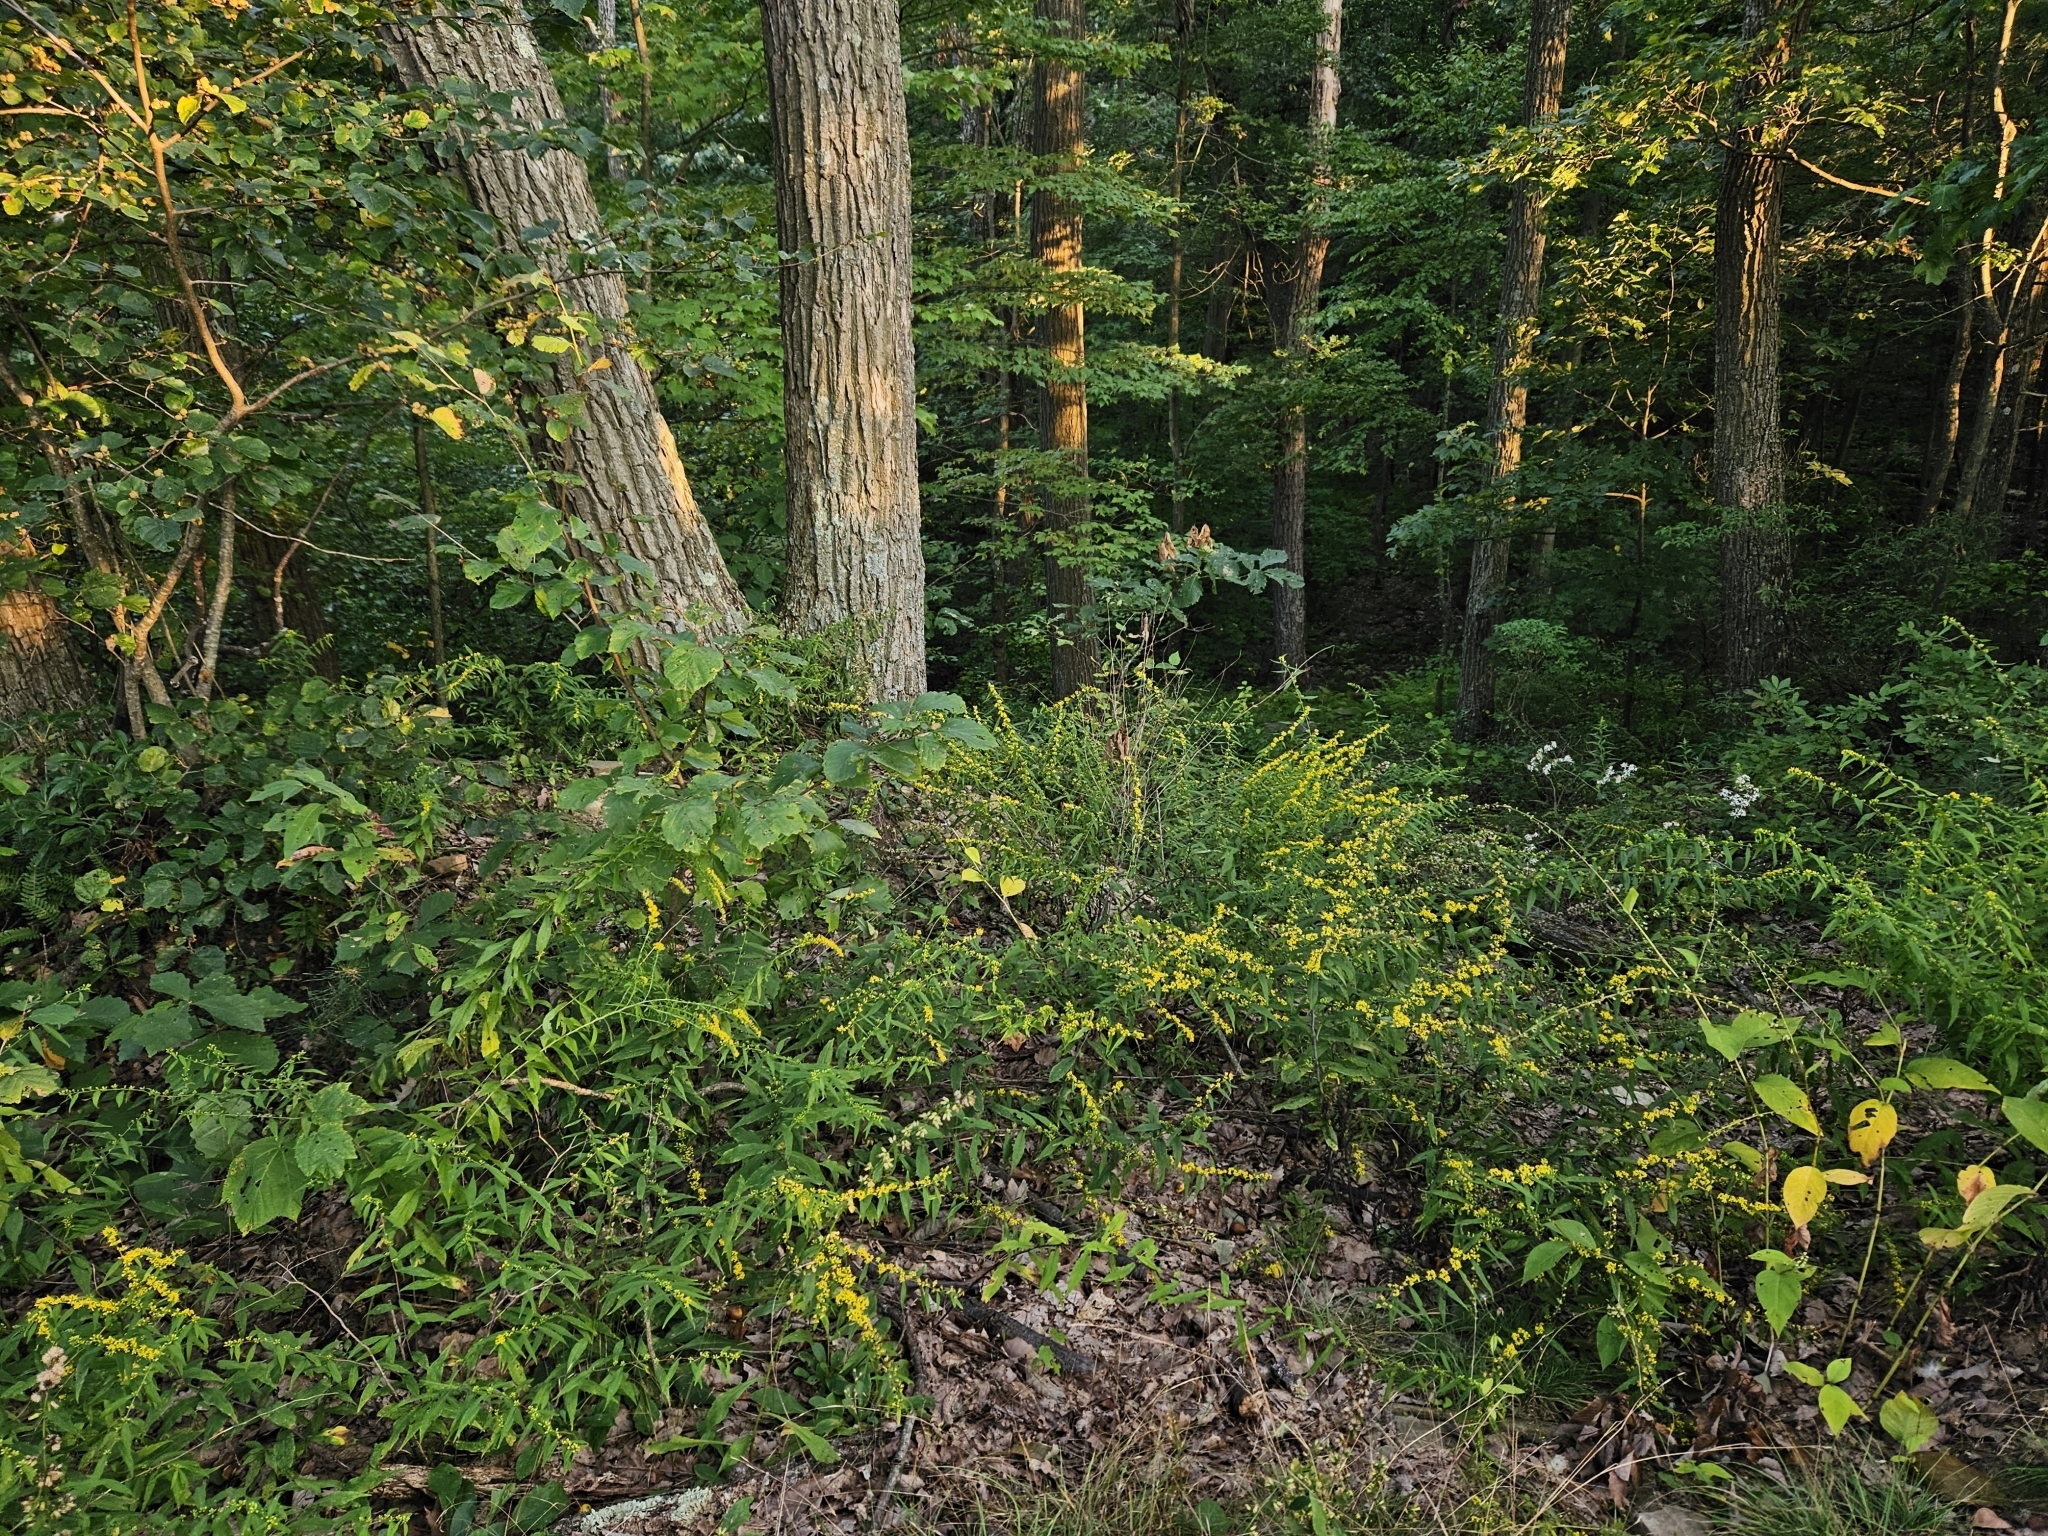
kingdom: Plantae
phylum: Tracheophyta
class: Magnoliopsida
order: Asterales
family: Asteraceae
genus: Solidago
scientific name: Solidago caesia
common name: Woodland goldenrod
